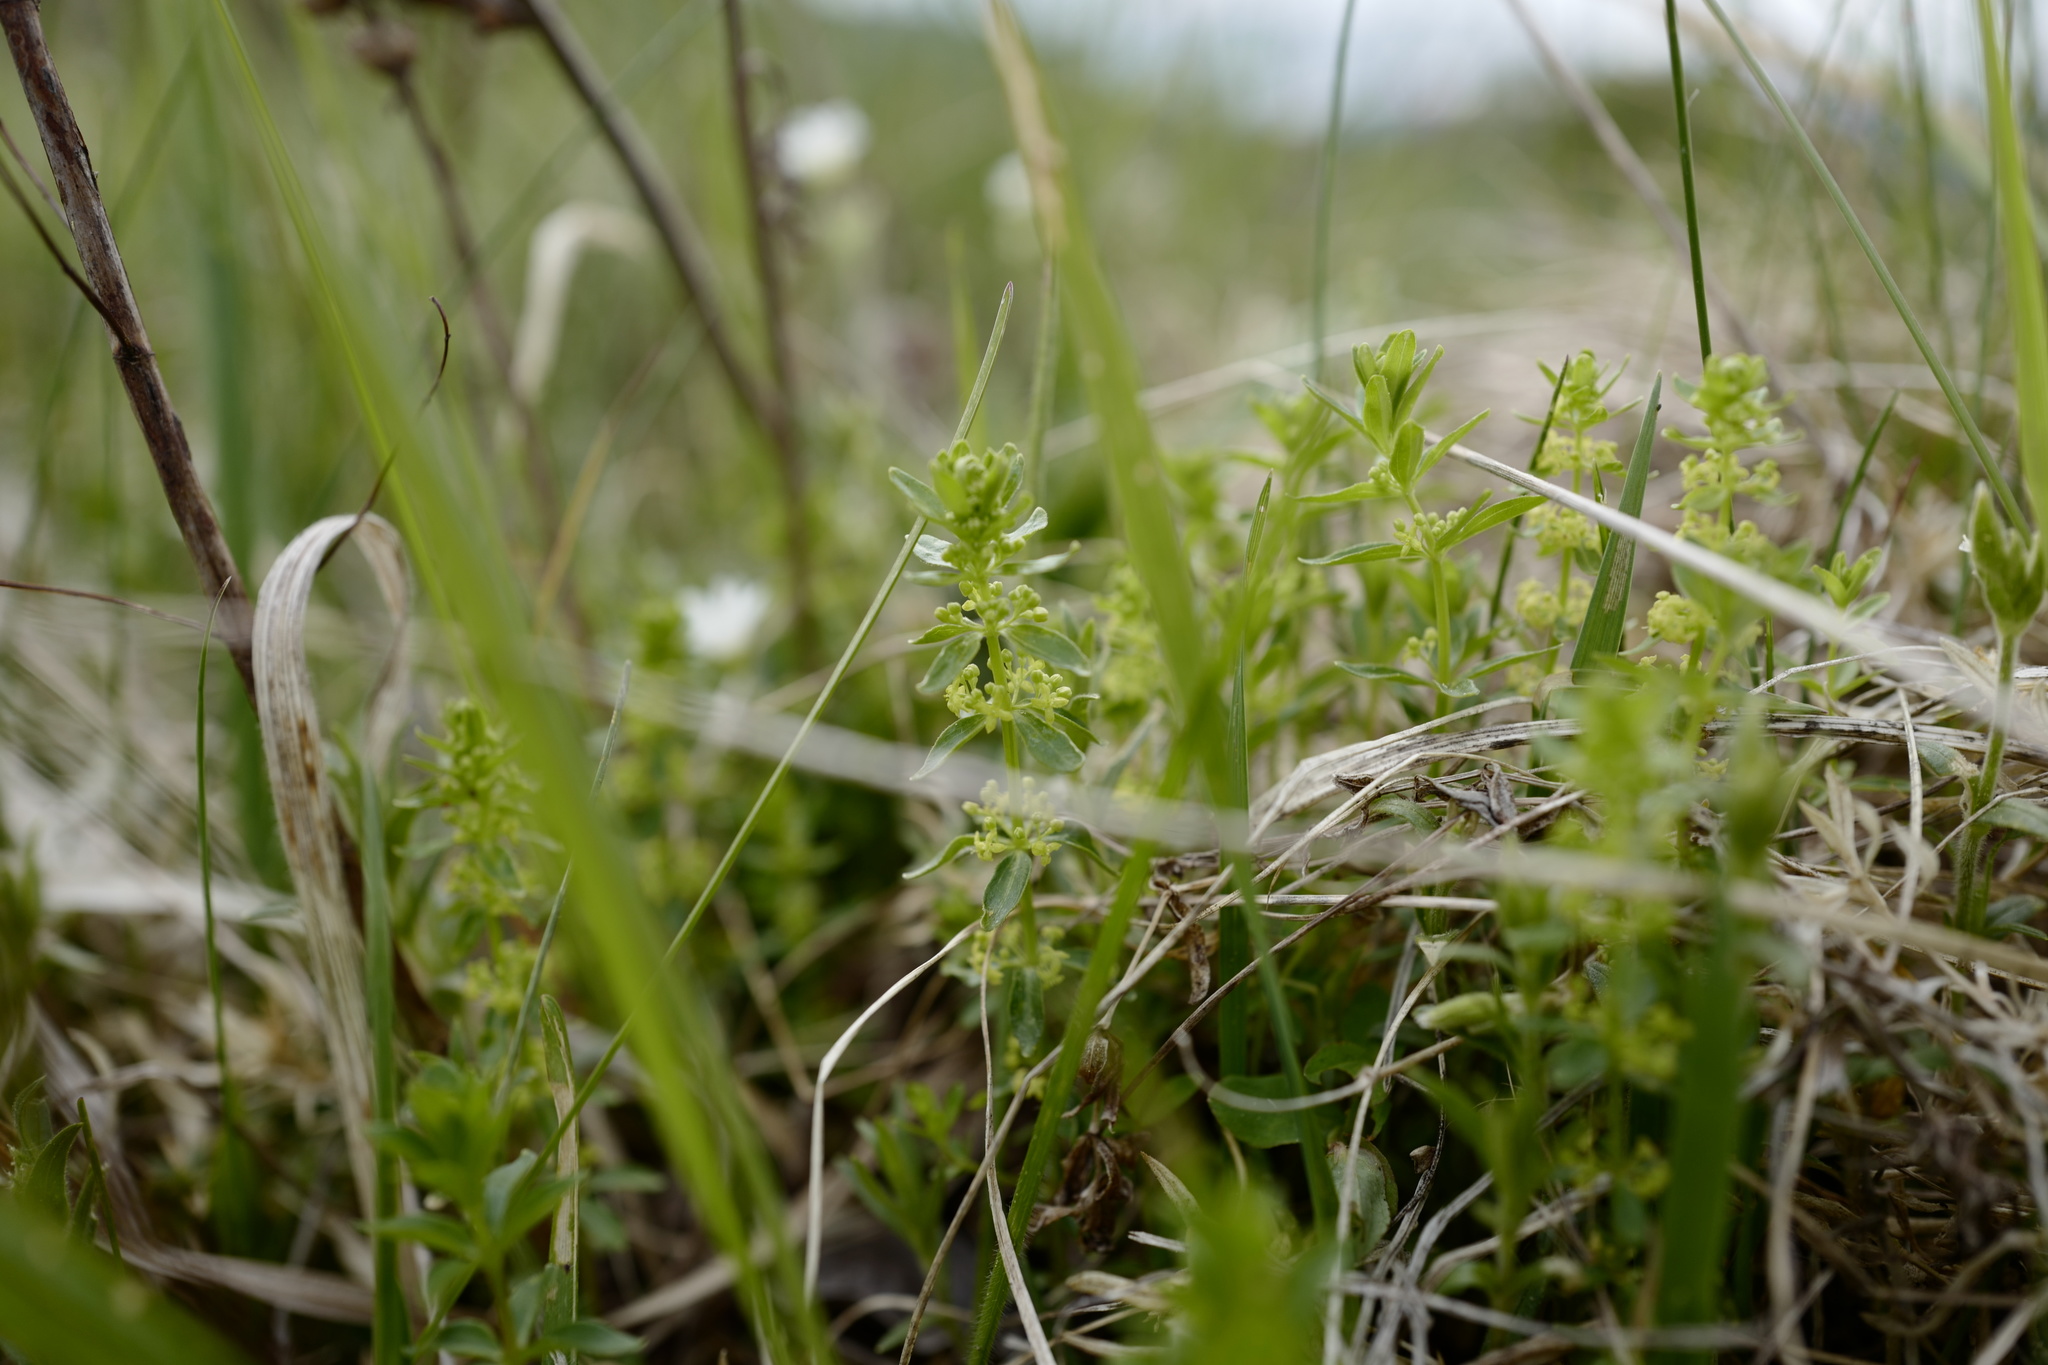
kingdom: Plantae
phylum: Tracheophyta
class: Magnoliopsida
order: Gentianales
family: Rubiaceae
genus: Cruciata
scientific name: Cruciata glabra
